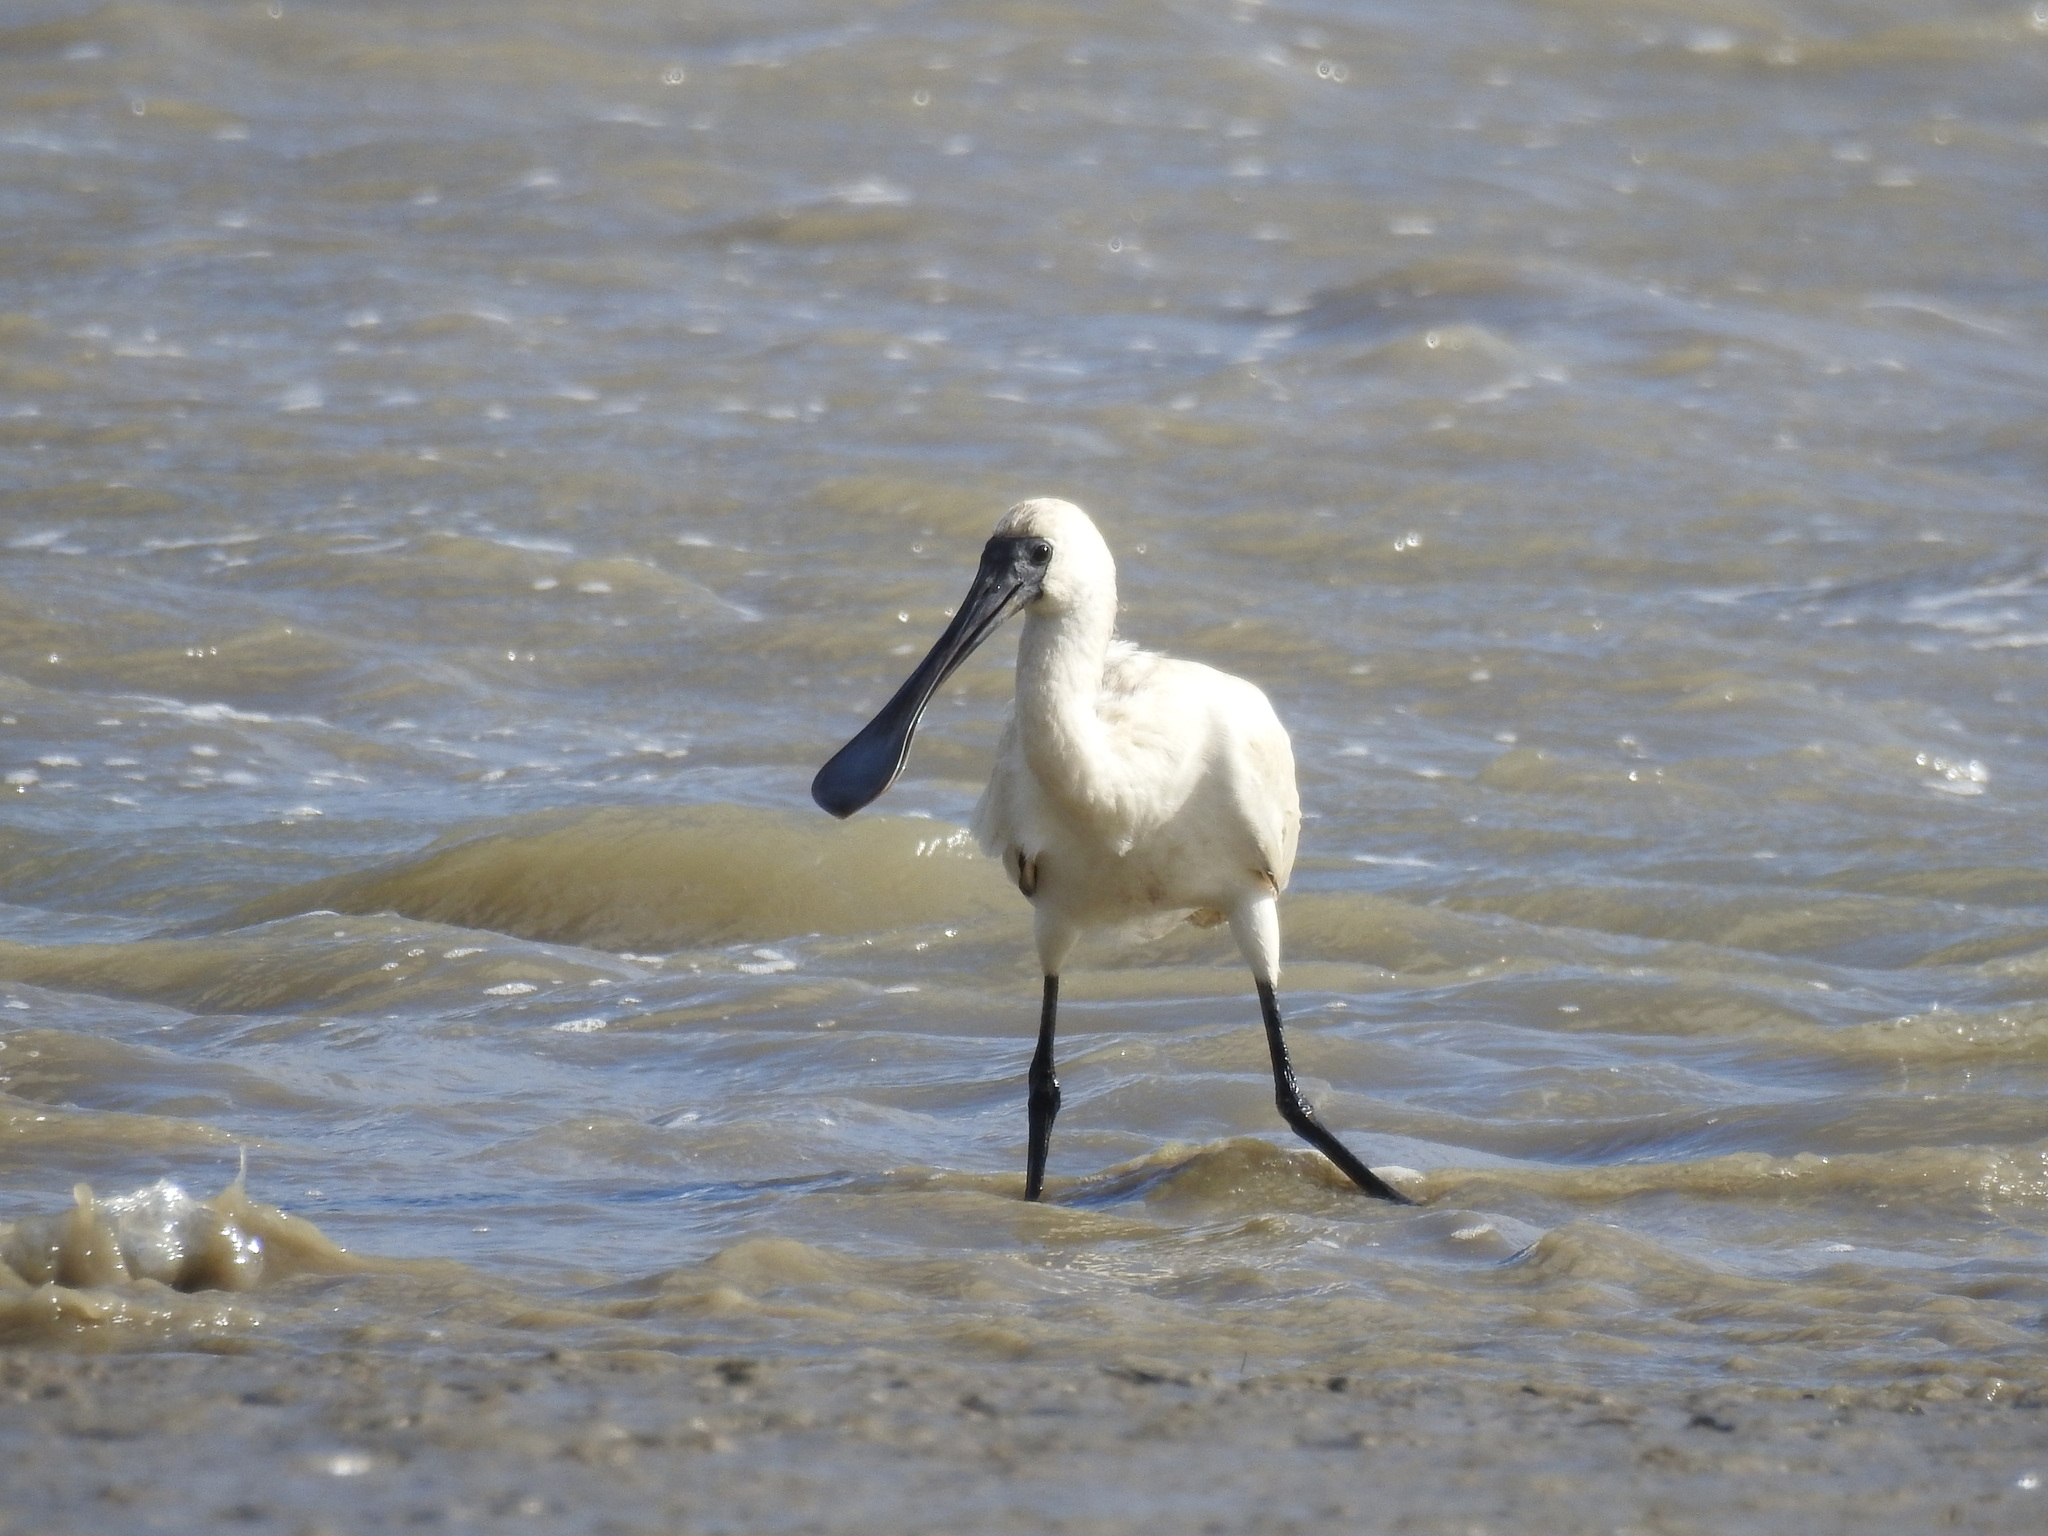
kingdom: Animalia
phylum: Chordata
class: Aves
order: Pelecaniformes
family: Threskiornithidae
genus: Platalea
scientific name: Platalea regia
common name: Royal spoonbill
